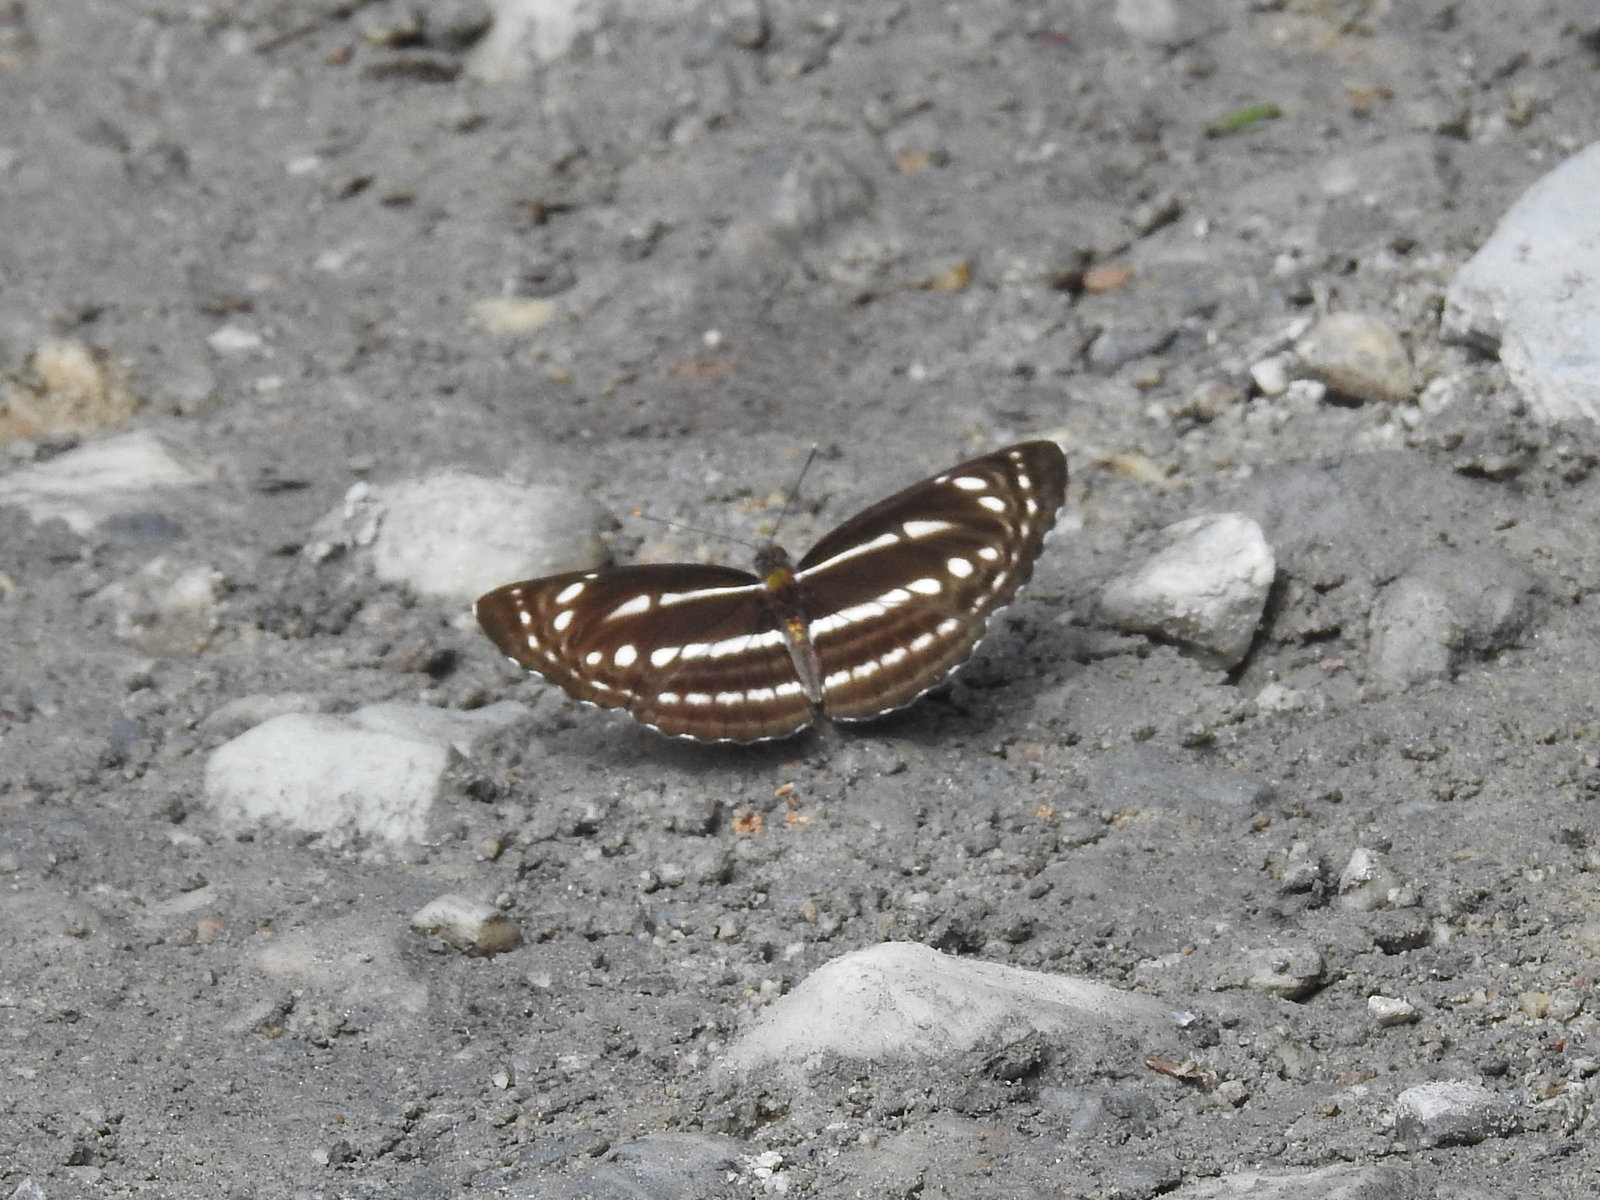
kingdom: Animalia
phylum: Arthropoda
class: Insecta
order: Lepidoptera
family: Nymphalidae
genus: Neptis
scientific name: Neptis nata
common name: Sullied brown sailer
